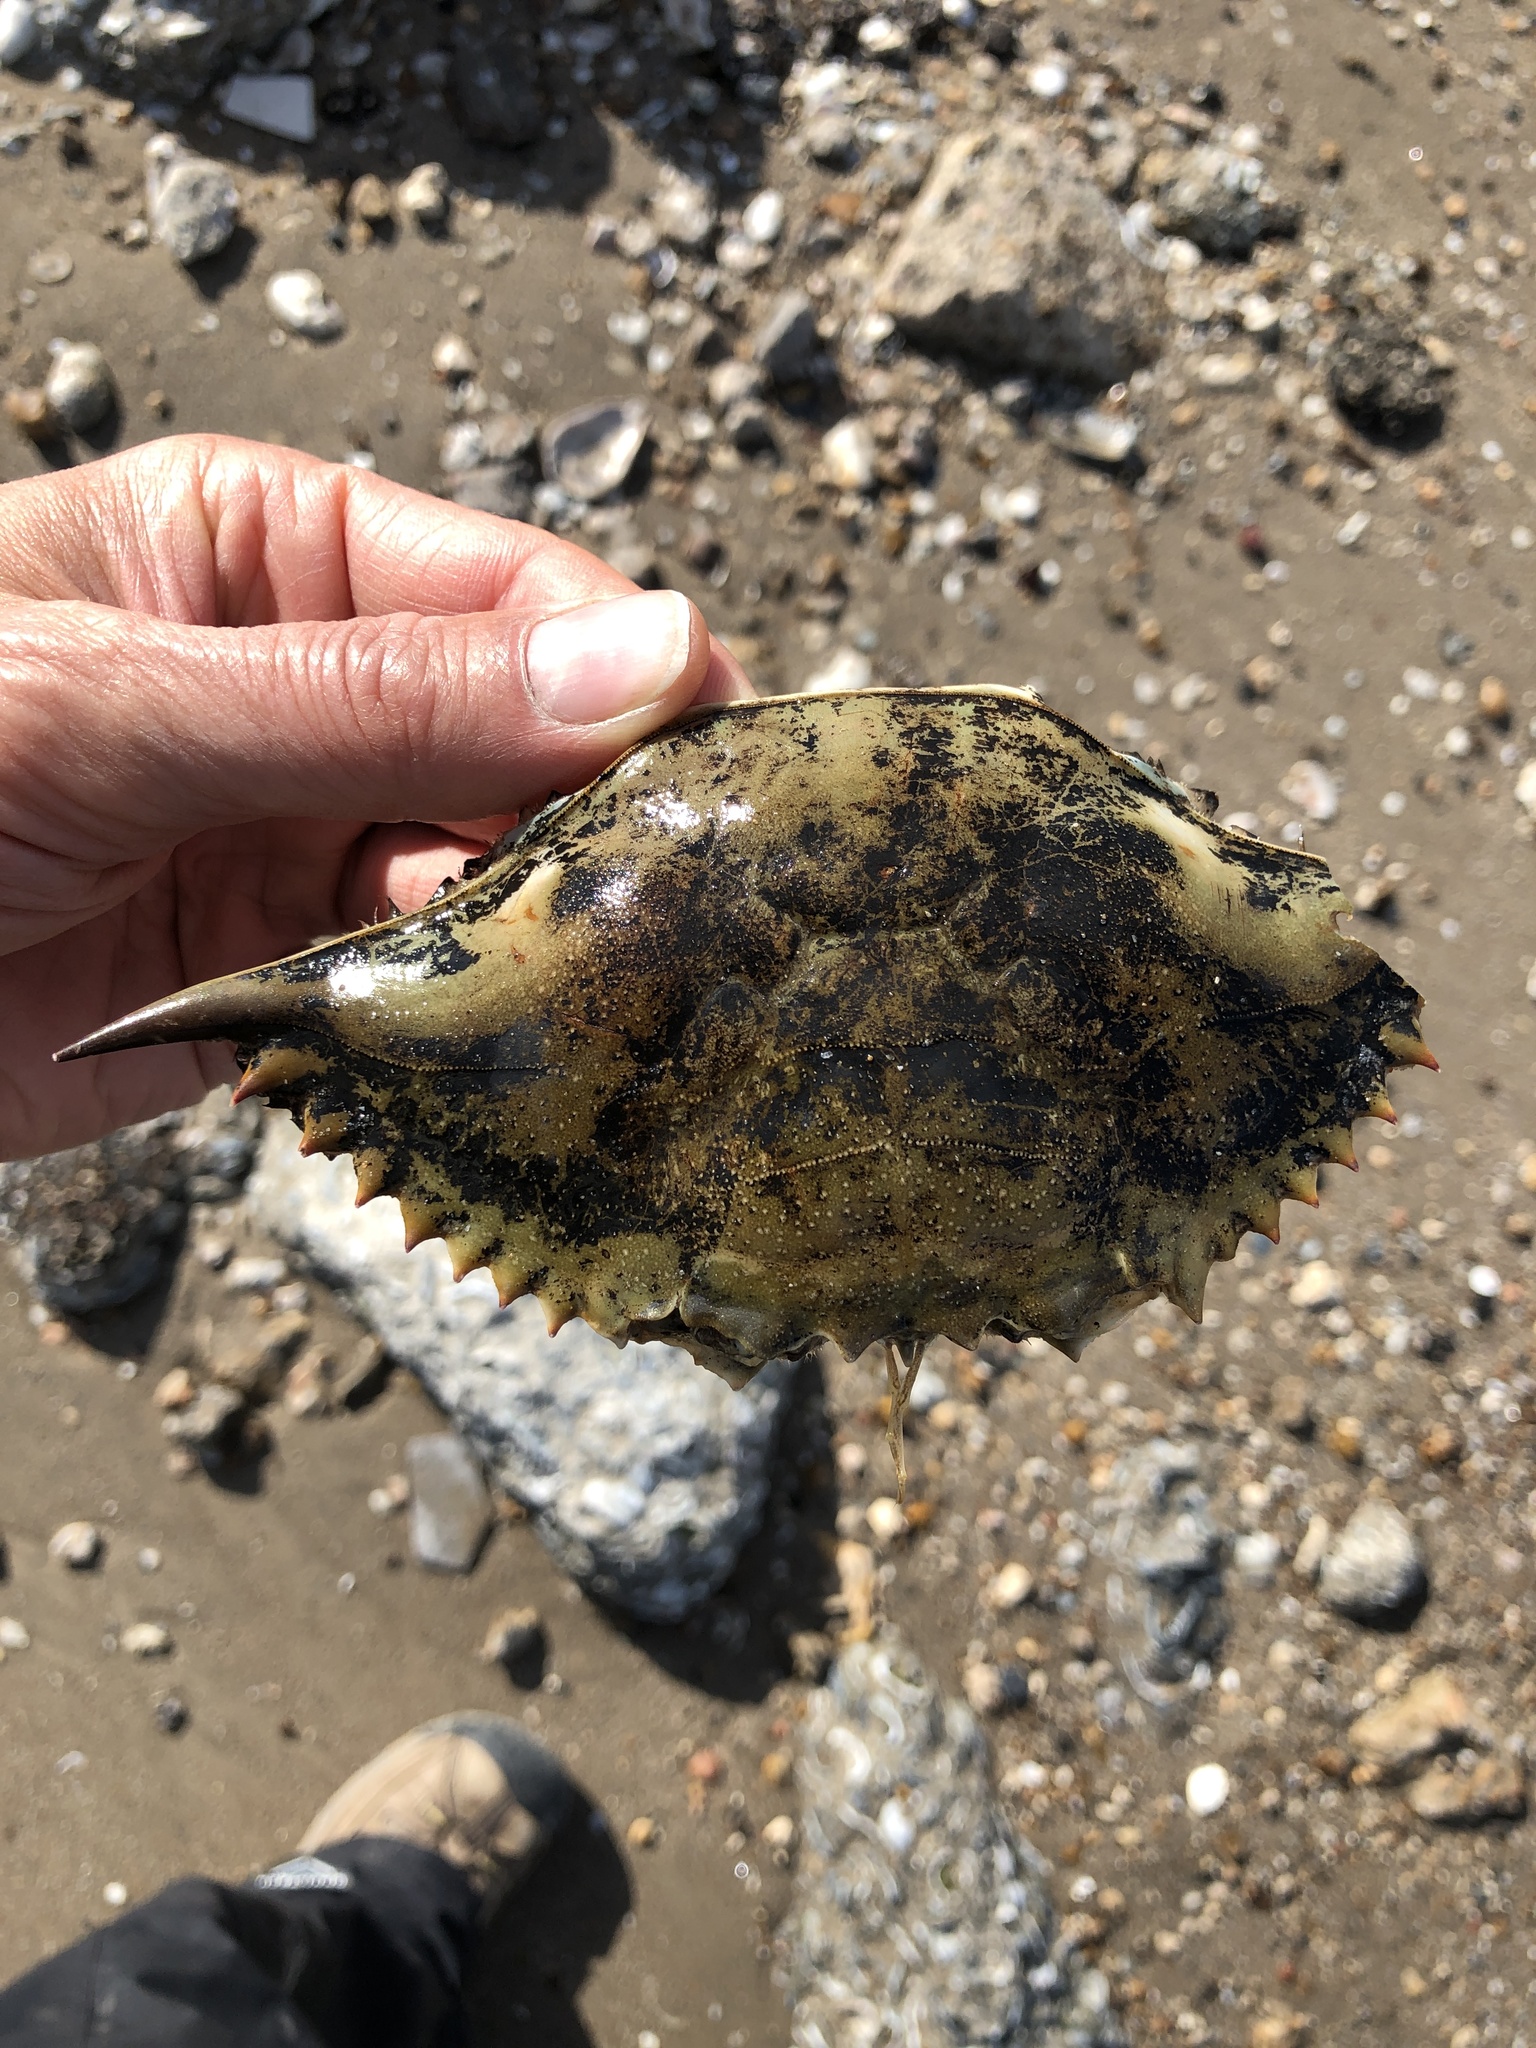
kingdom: Animalia
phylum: Arthropoda
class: Malacostraca
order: Decapoda
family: Portunidae
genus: Callinectes
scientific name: Callinectes sapidus
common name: Blue crab
